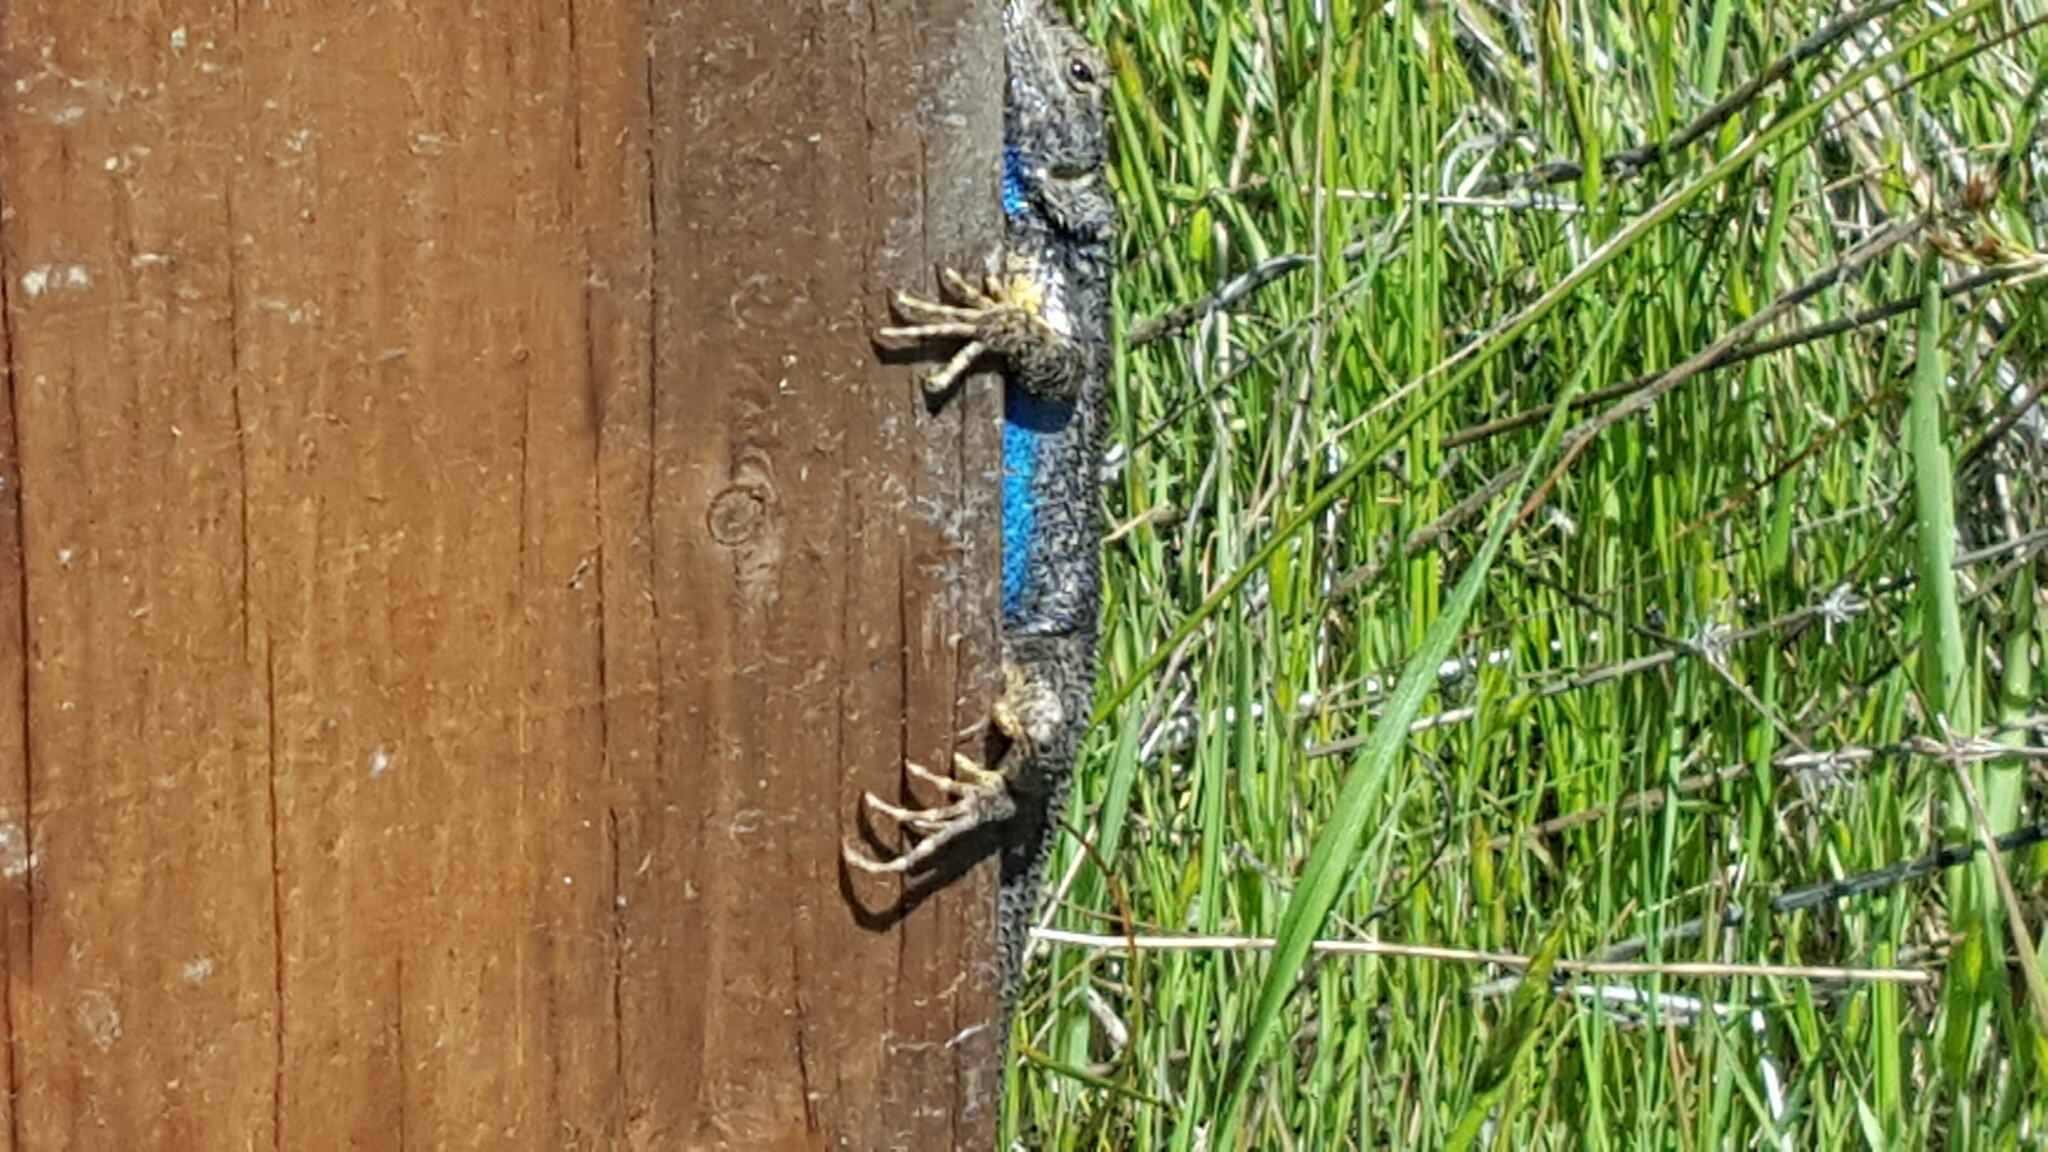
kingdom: Animalia
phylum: Chordata
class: Squamata
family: Phrynosomatidae
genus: Sceloporus
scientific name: Sceloporus occidentalis
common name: Western fence lizard
